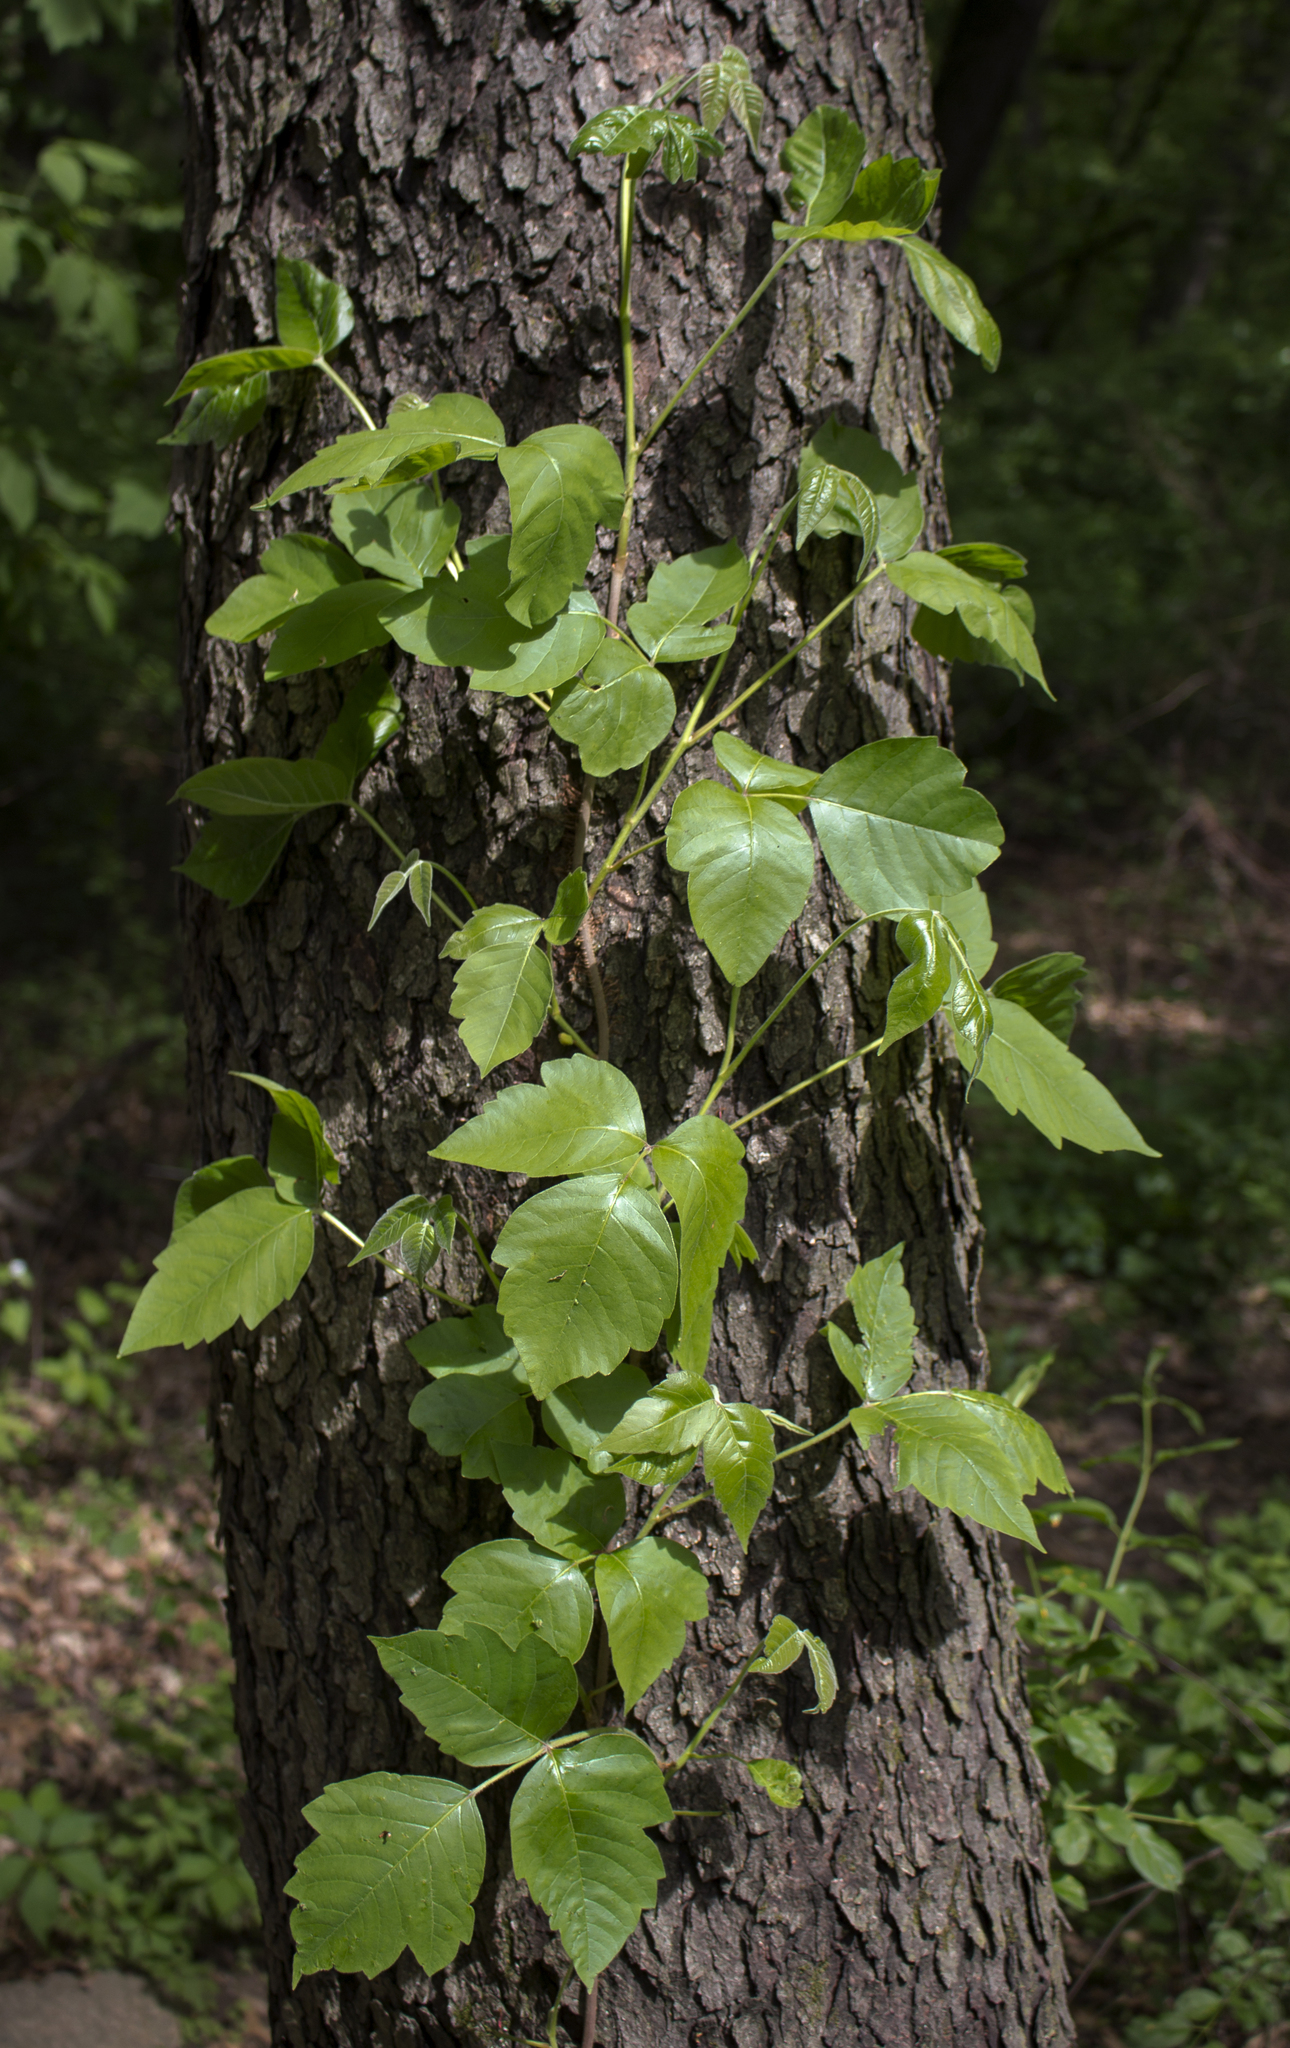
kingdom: Plantae
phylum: Tracheophyta
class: Magnoliopsida
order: Sapindales
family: Anacardiaceae
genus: Toxicodendron
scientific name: Toxicodendron radicans
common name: Poison ivy
